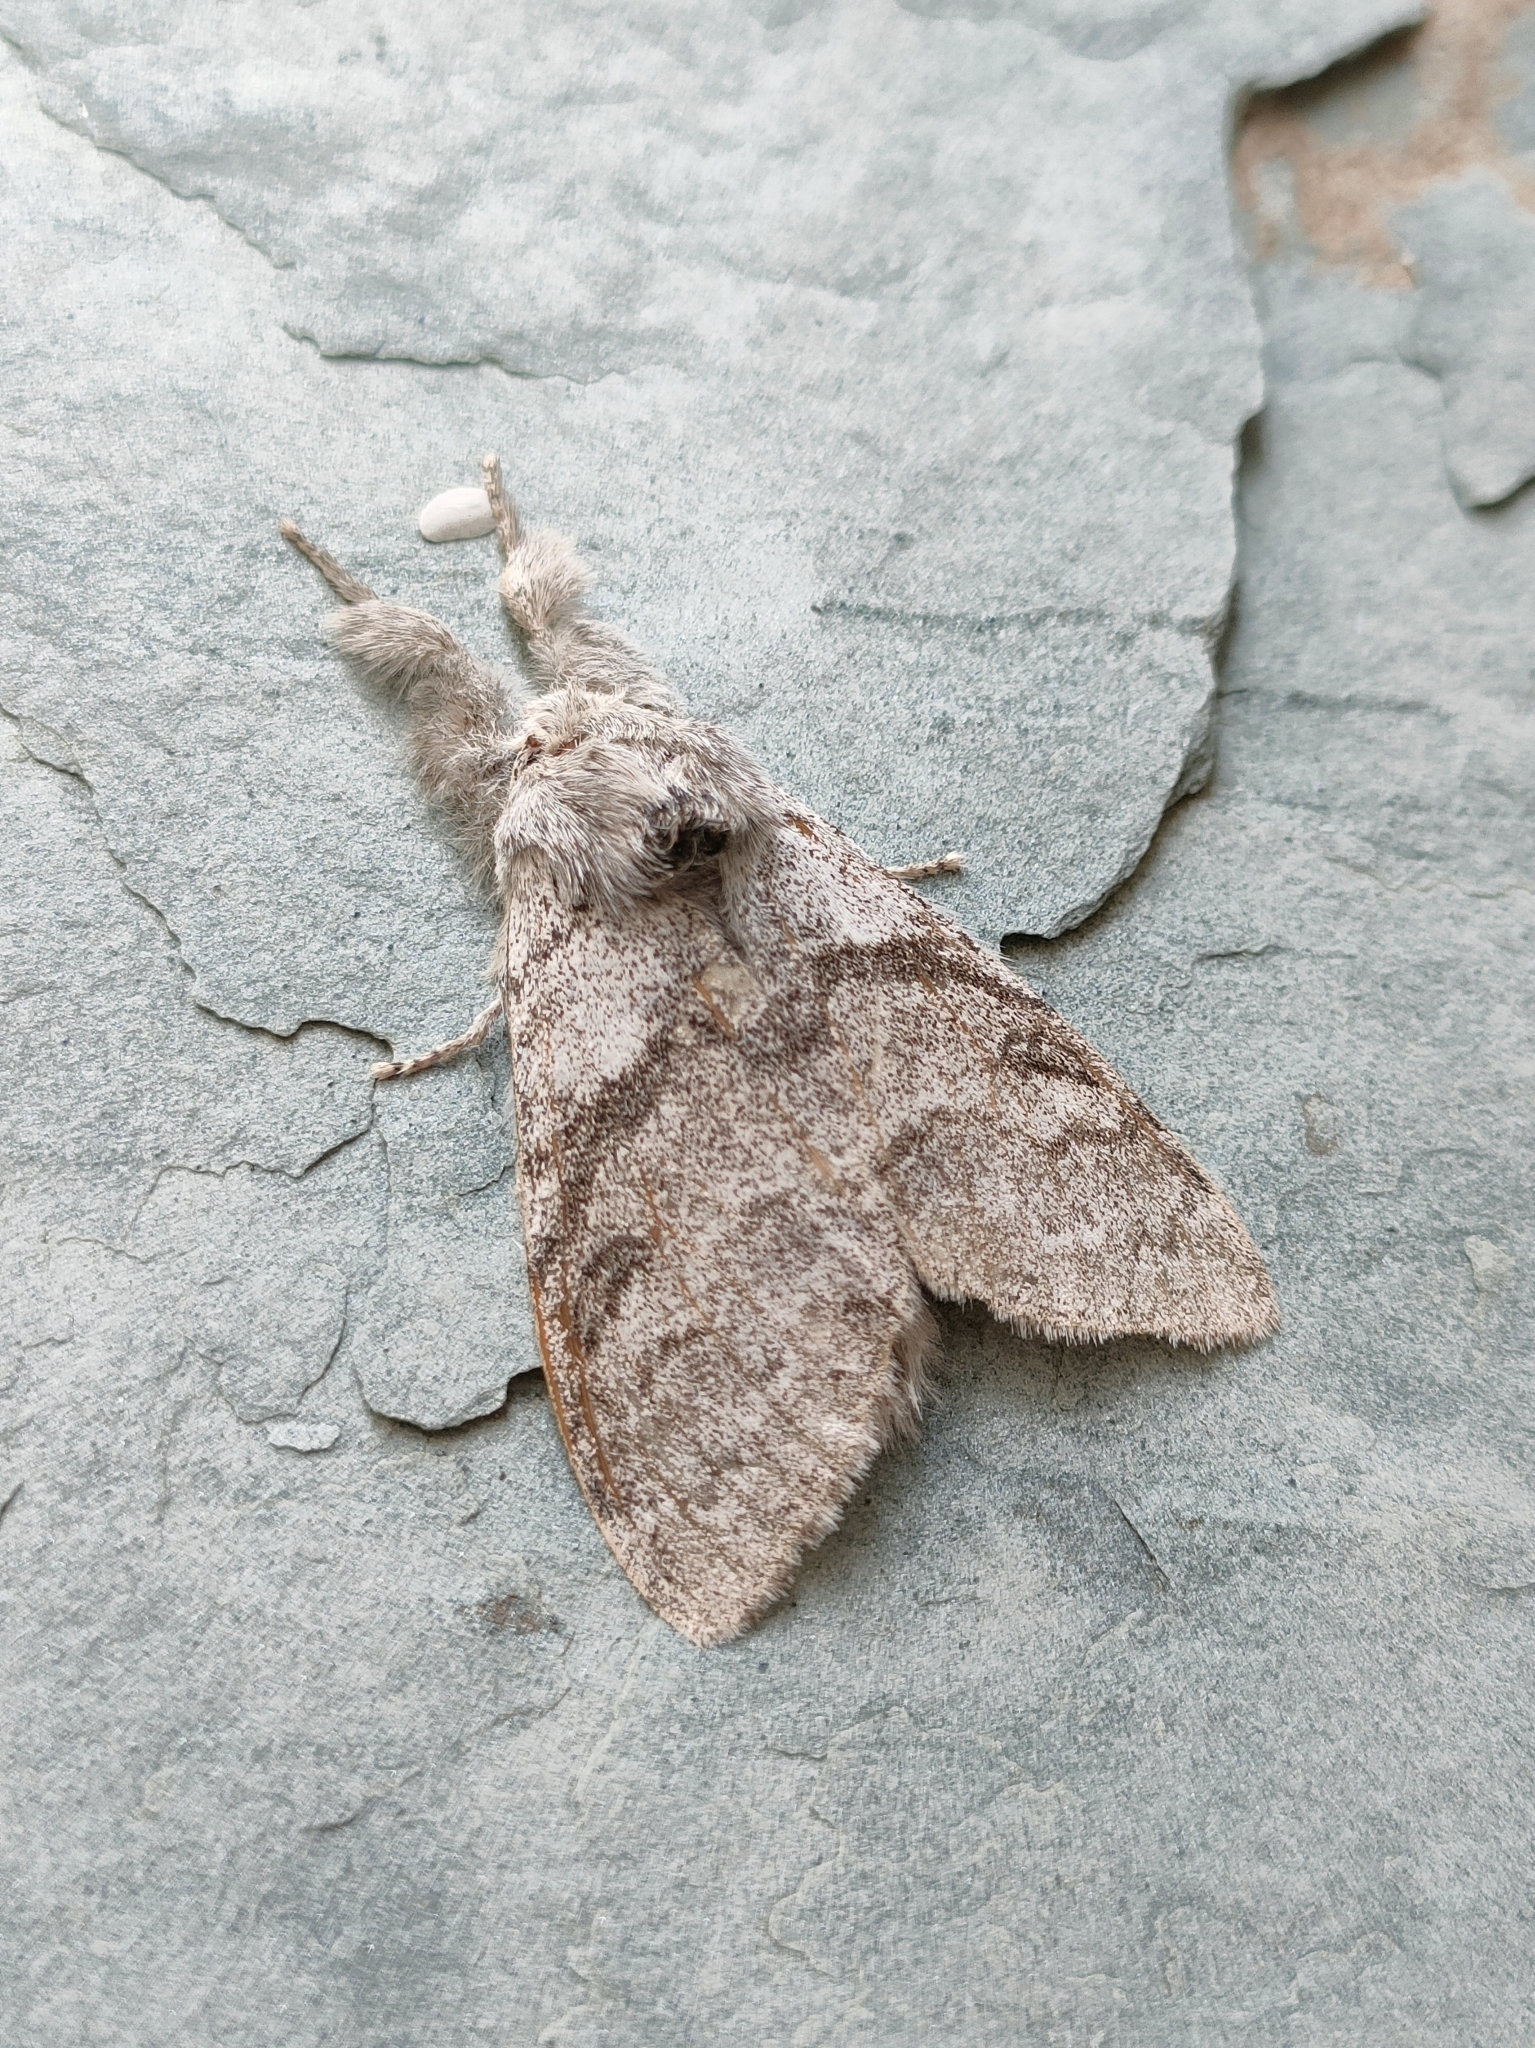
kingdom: Animalia
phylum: Arthropoda
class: Insecta
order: Lepidoptera
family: Erebidae
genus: Calliteara
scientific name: Calliteara pudibunda
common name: Pale tussock
